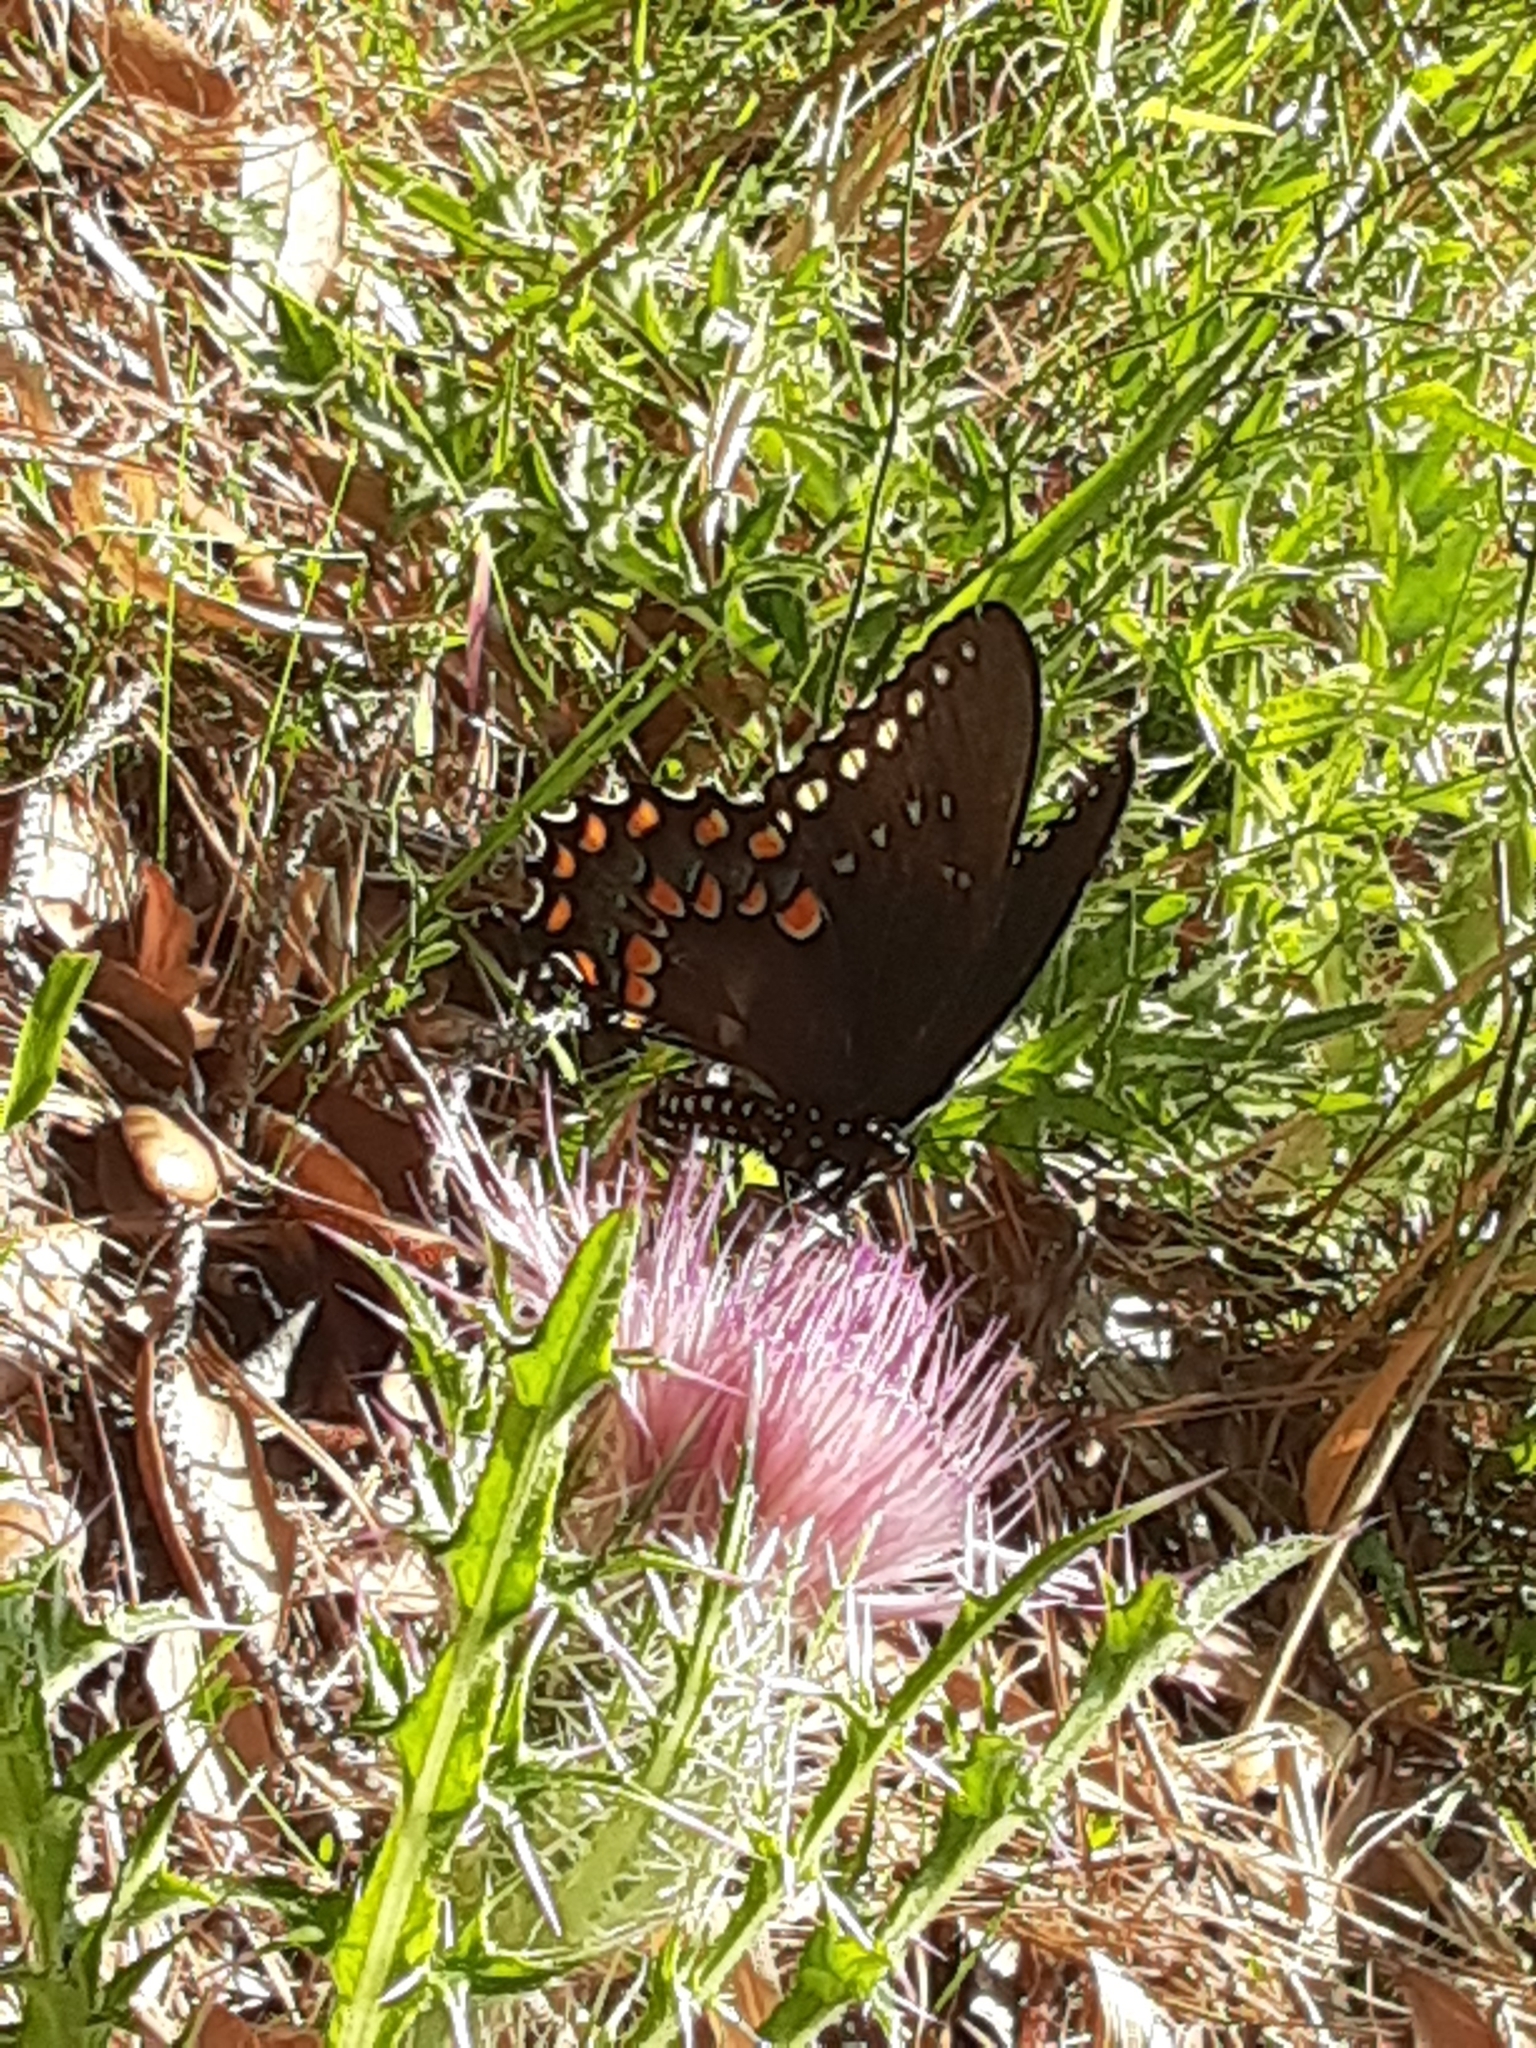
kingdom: Animalia
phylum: Arthropoda
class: Insecta
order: Lepidoptera
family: Papilionidae
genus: Papilio
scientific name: Papilio troilus
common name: Spicebush swallowtail
